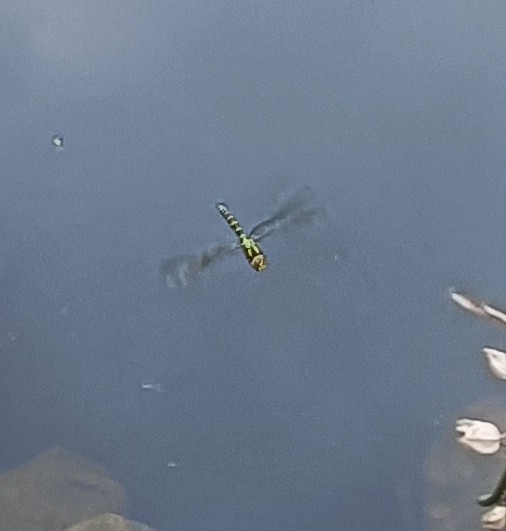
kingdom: Animalia
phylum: Arthropoda
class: Insecta
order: Odonata
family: Aeshnidae
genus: Aeshna
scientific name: Aeshna cyanea
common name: Southern hawker
